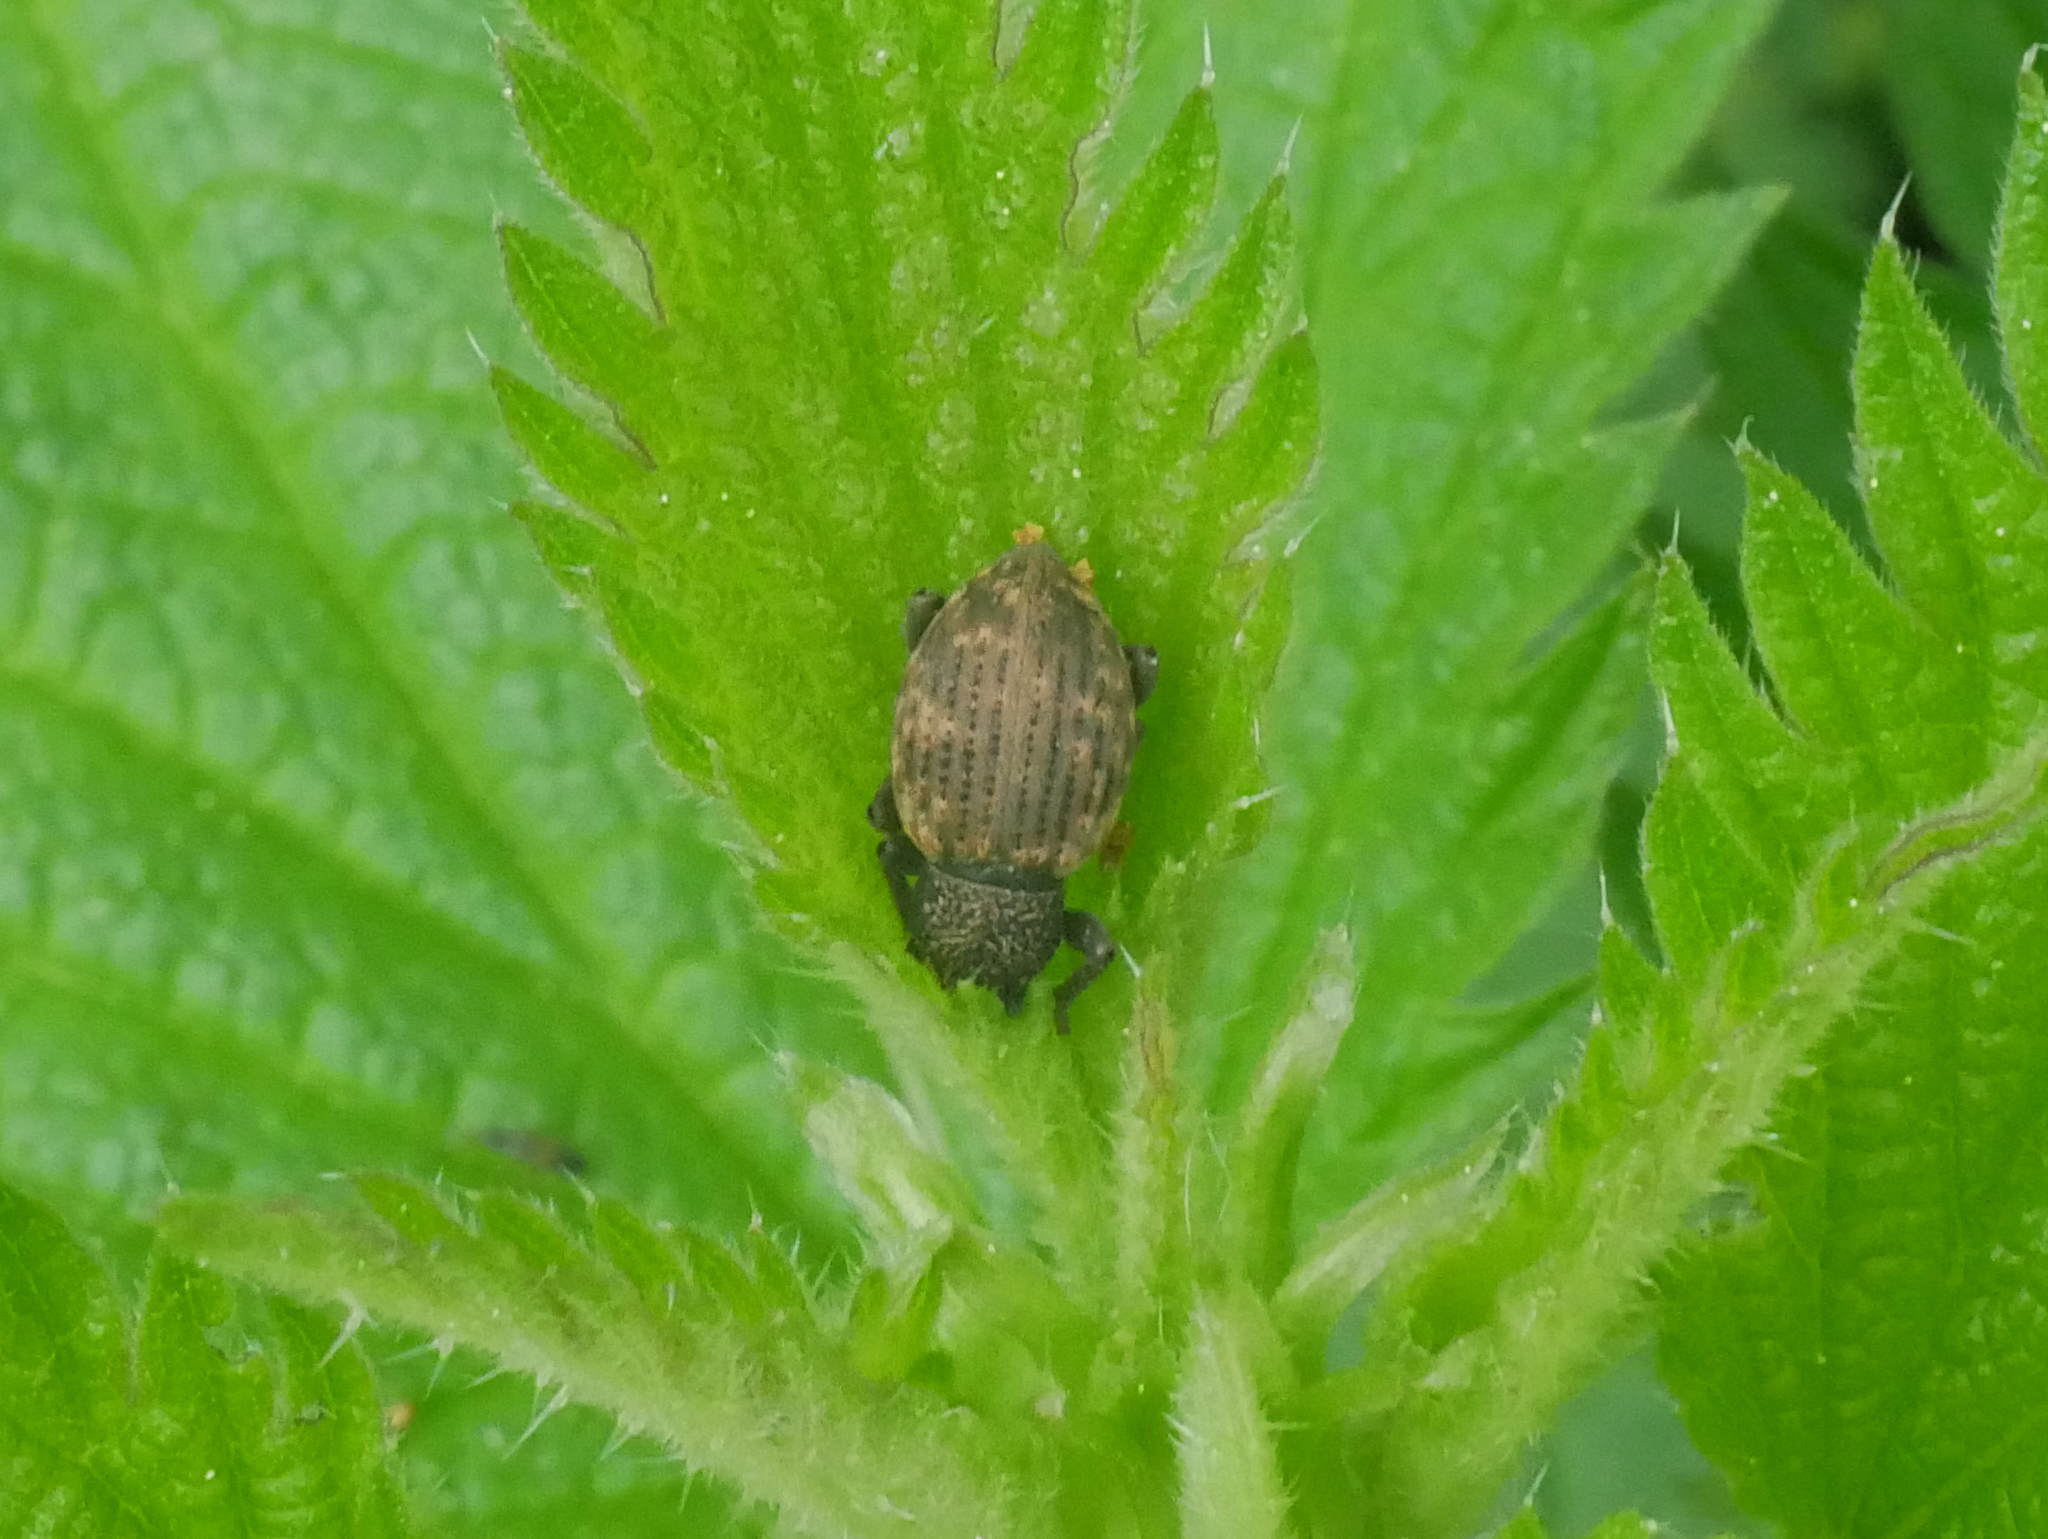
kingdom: Animalia
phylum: Arthropoda
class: Insecta
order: Coleoptera
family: Curculionidae
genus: Otiorhynchus
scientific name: Otiorhynchus raucus
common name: Weevil
